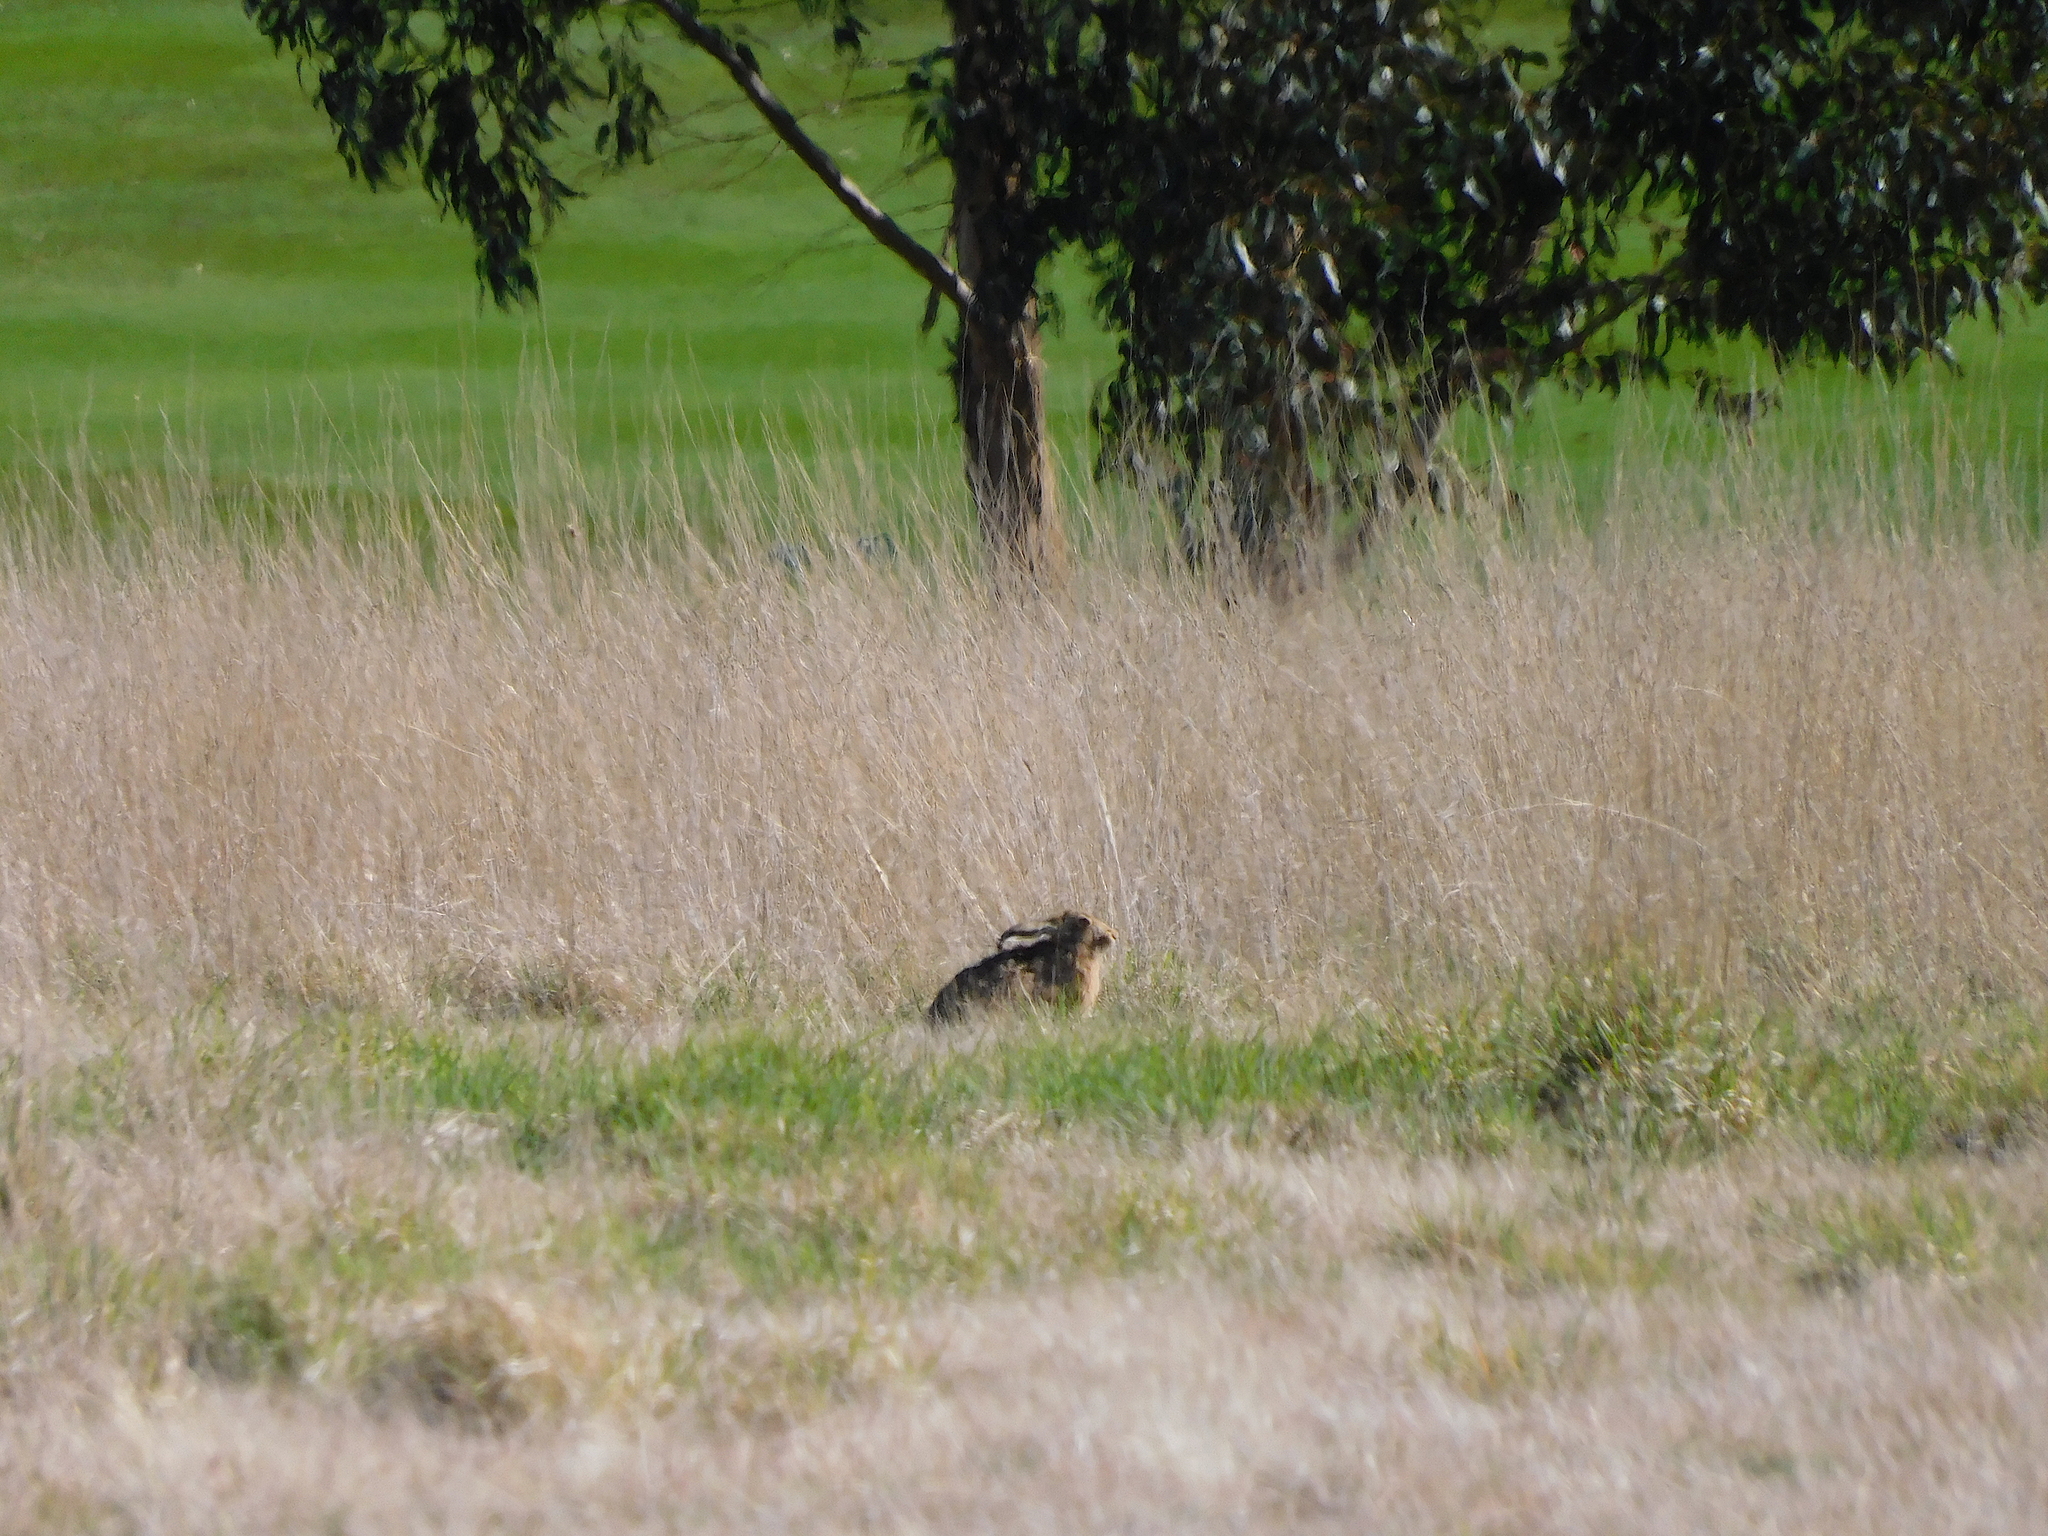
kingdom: Animalia
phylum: Chordata
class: Mammalia
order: Lagomorpha
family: Leporidae
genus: Lepus
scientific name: Lepus europaeus
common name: European hare
